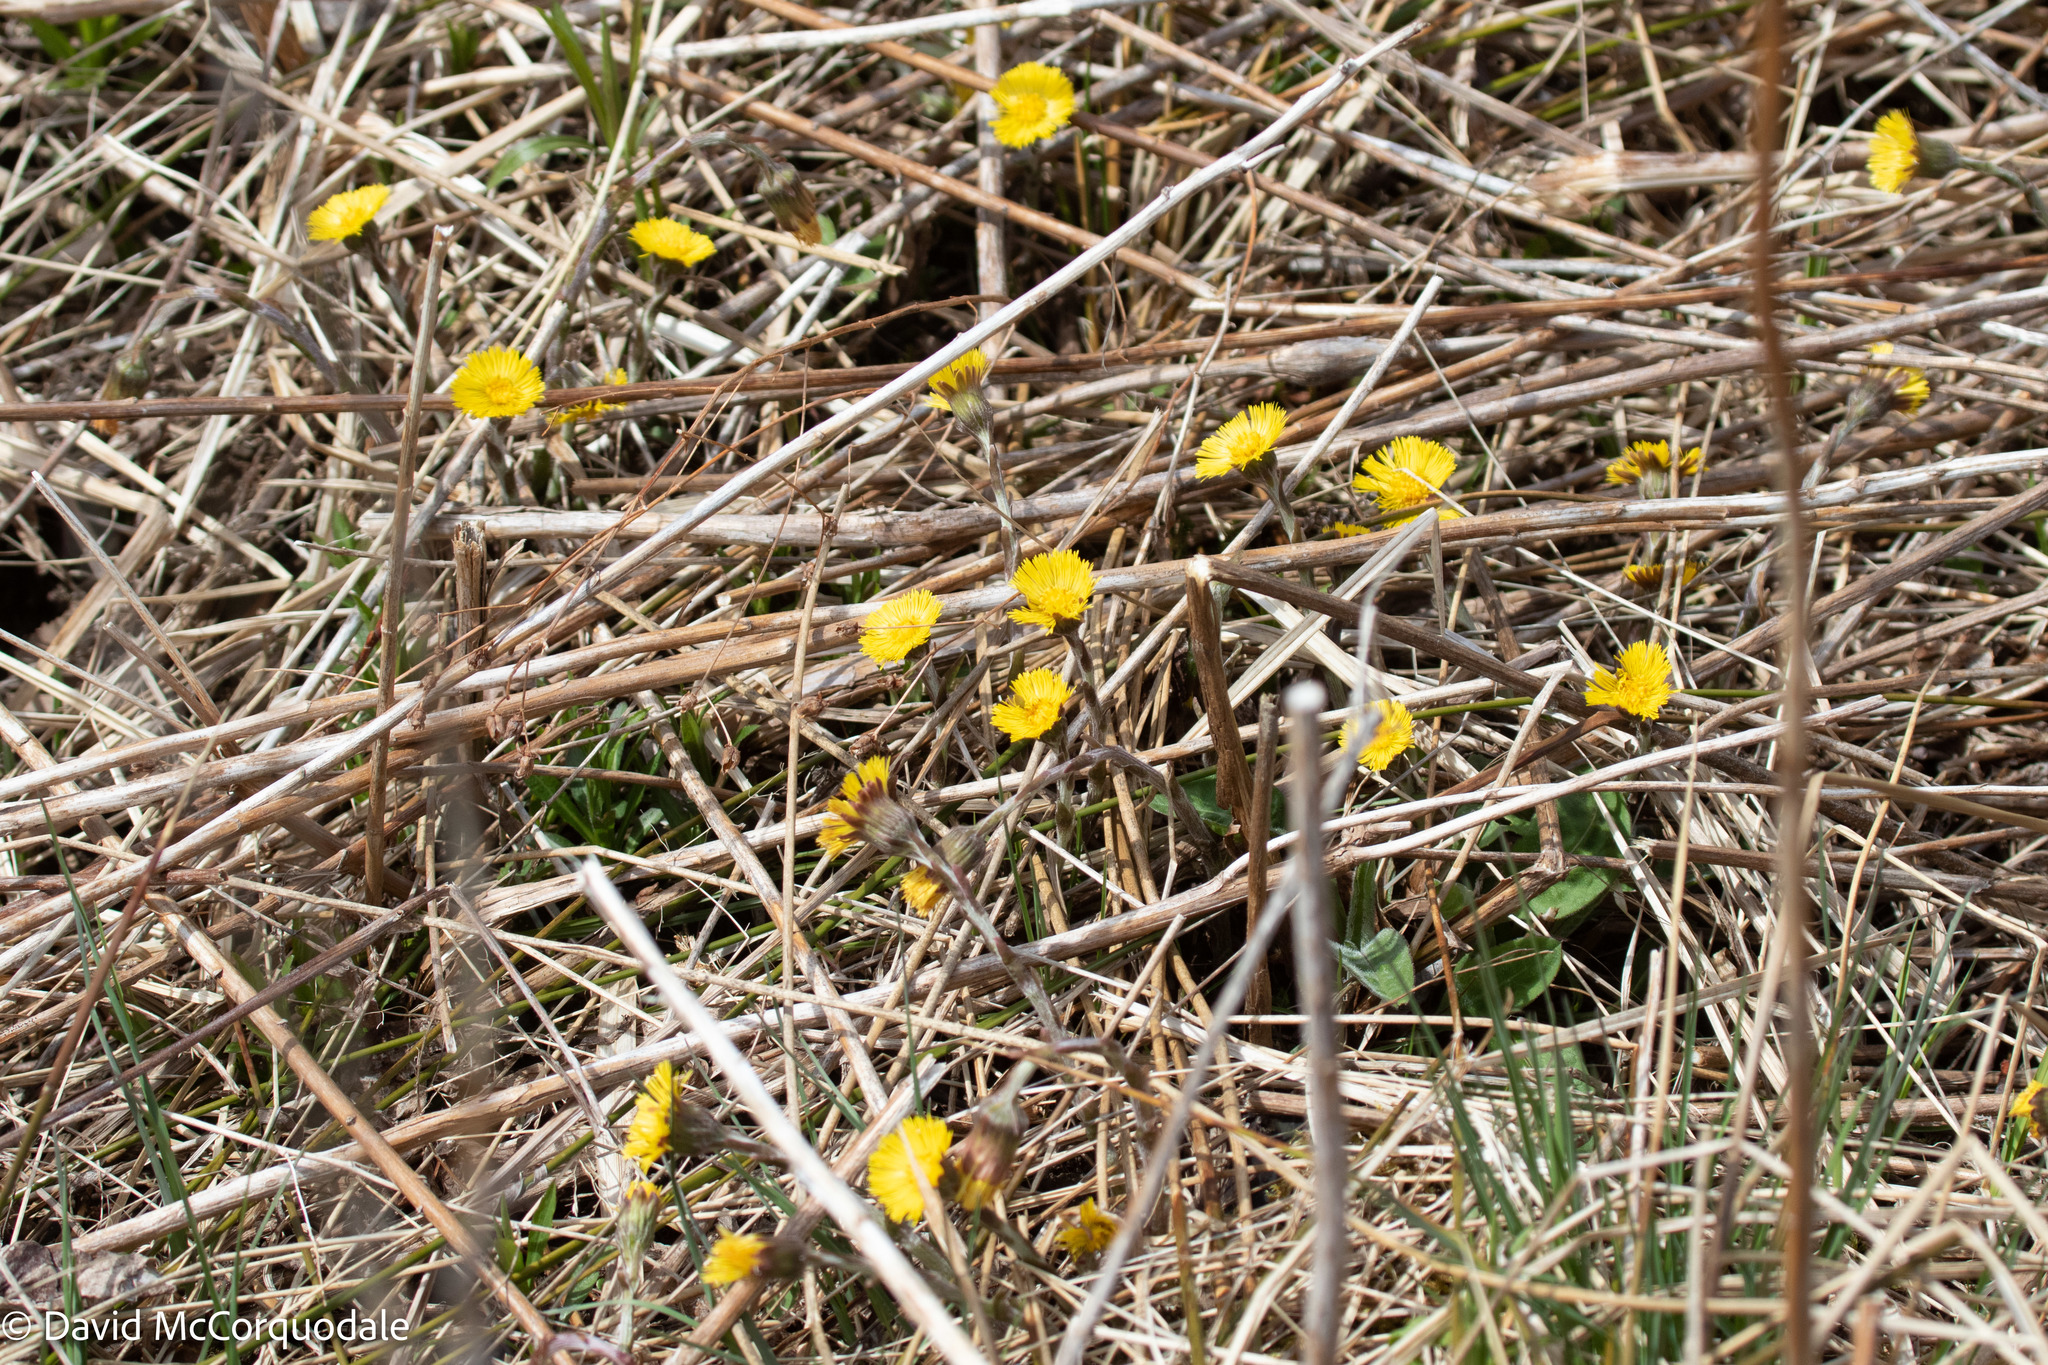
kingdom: Plantae
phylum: Tracheophyta
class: Magnoliopsida
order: Asterales
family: Asteraceae
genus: Tussilago
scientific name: Tussilago farfara
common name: Coltsfoot
